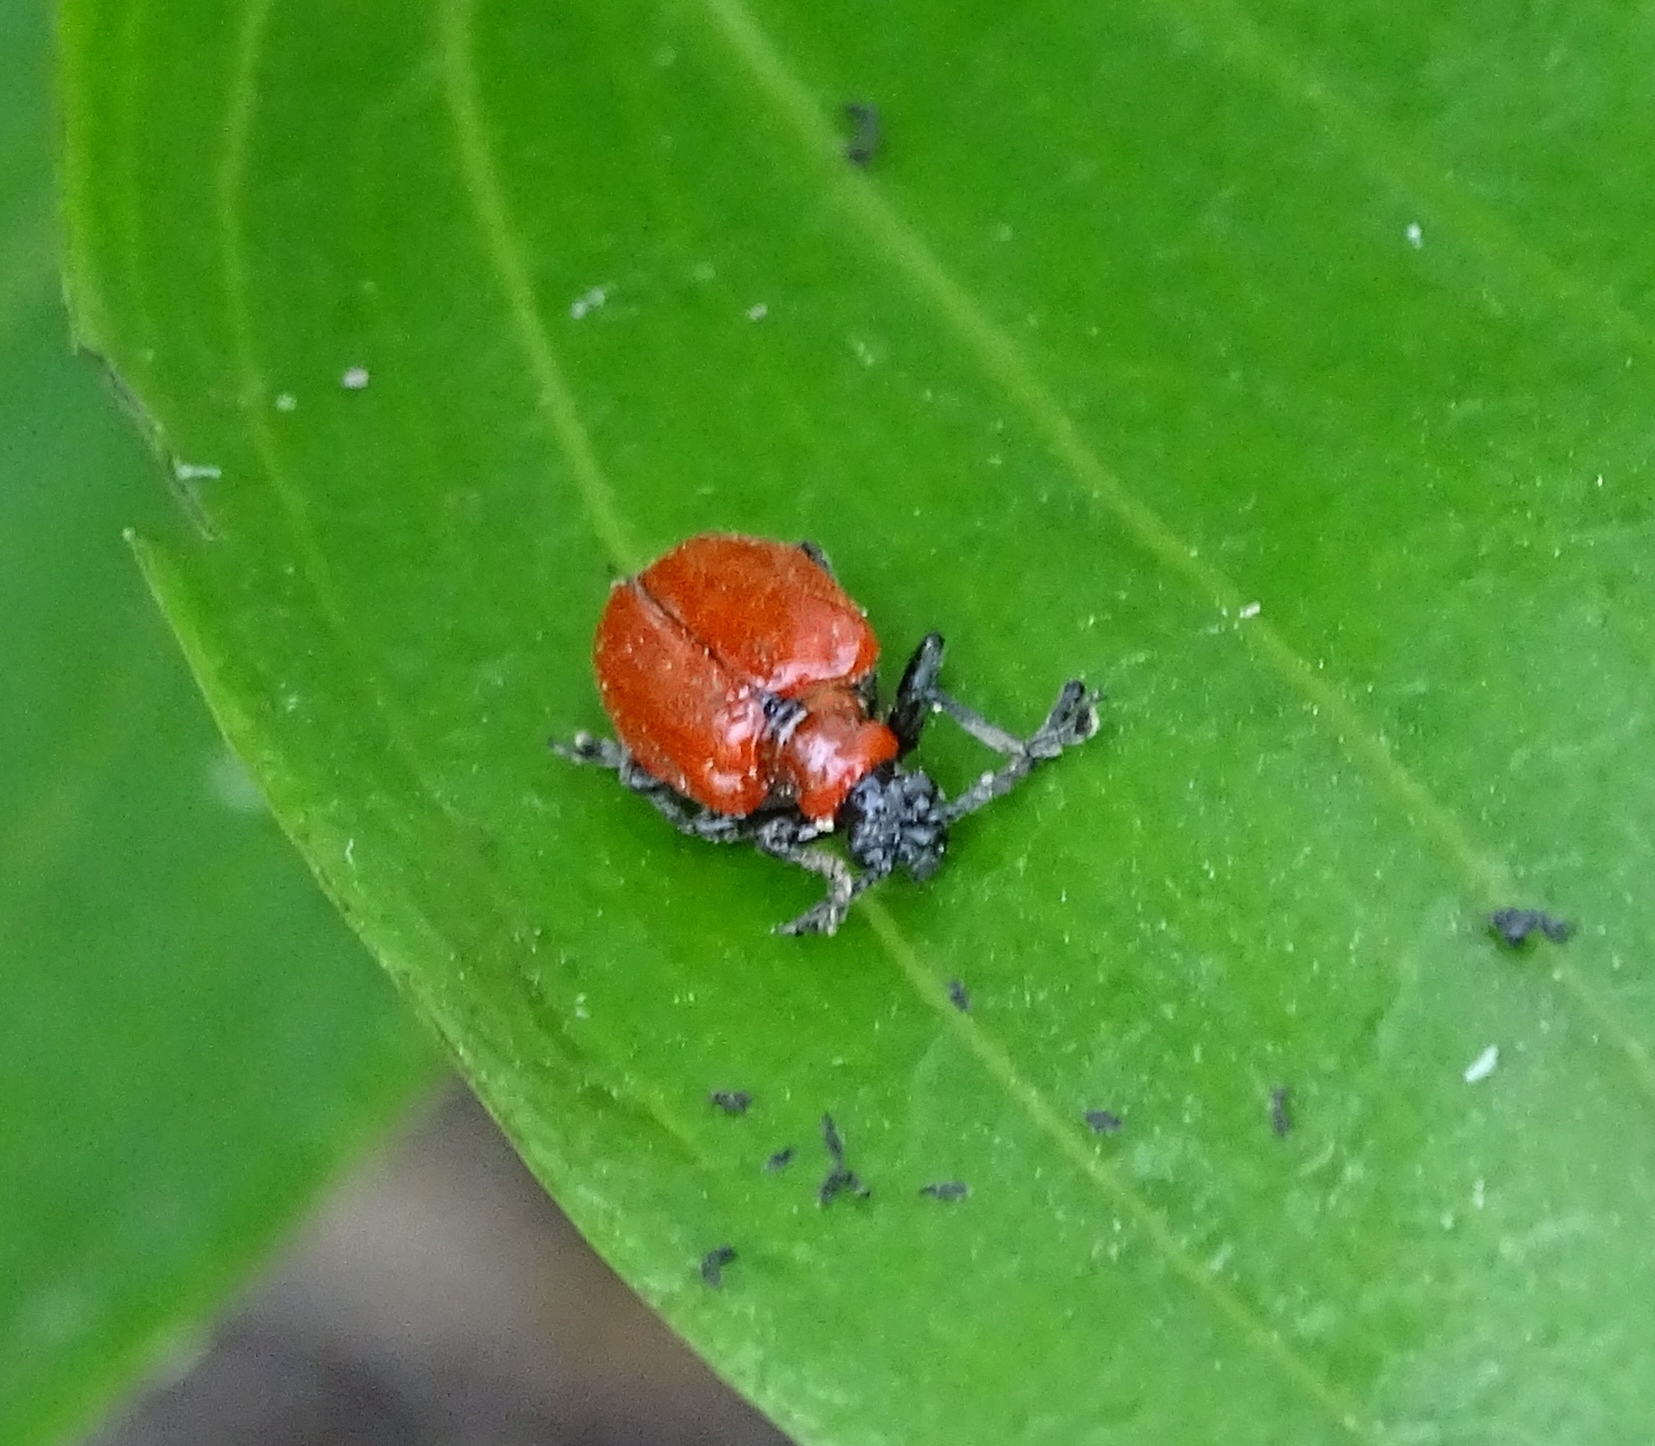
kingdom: Animalia
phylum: Arthropoda
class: Insecta
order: Coleoptera
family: Chrysomelidae
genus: Lilioceris
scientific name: Lilioceris lilii
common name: Lily beetle
